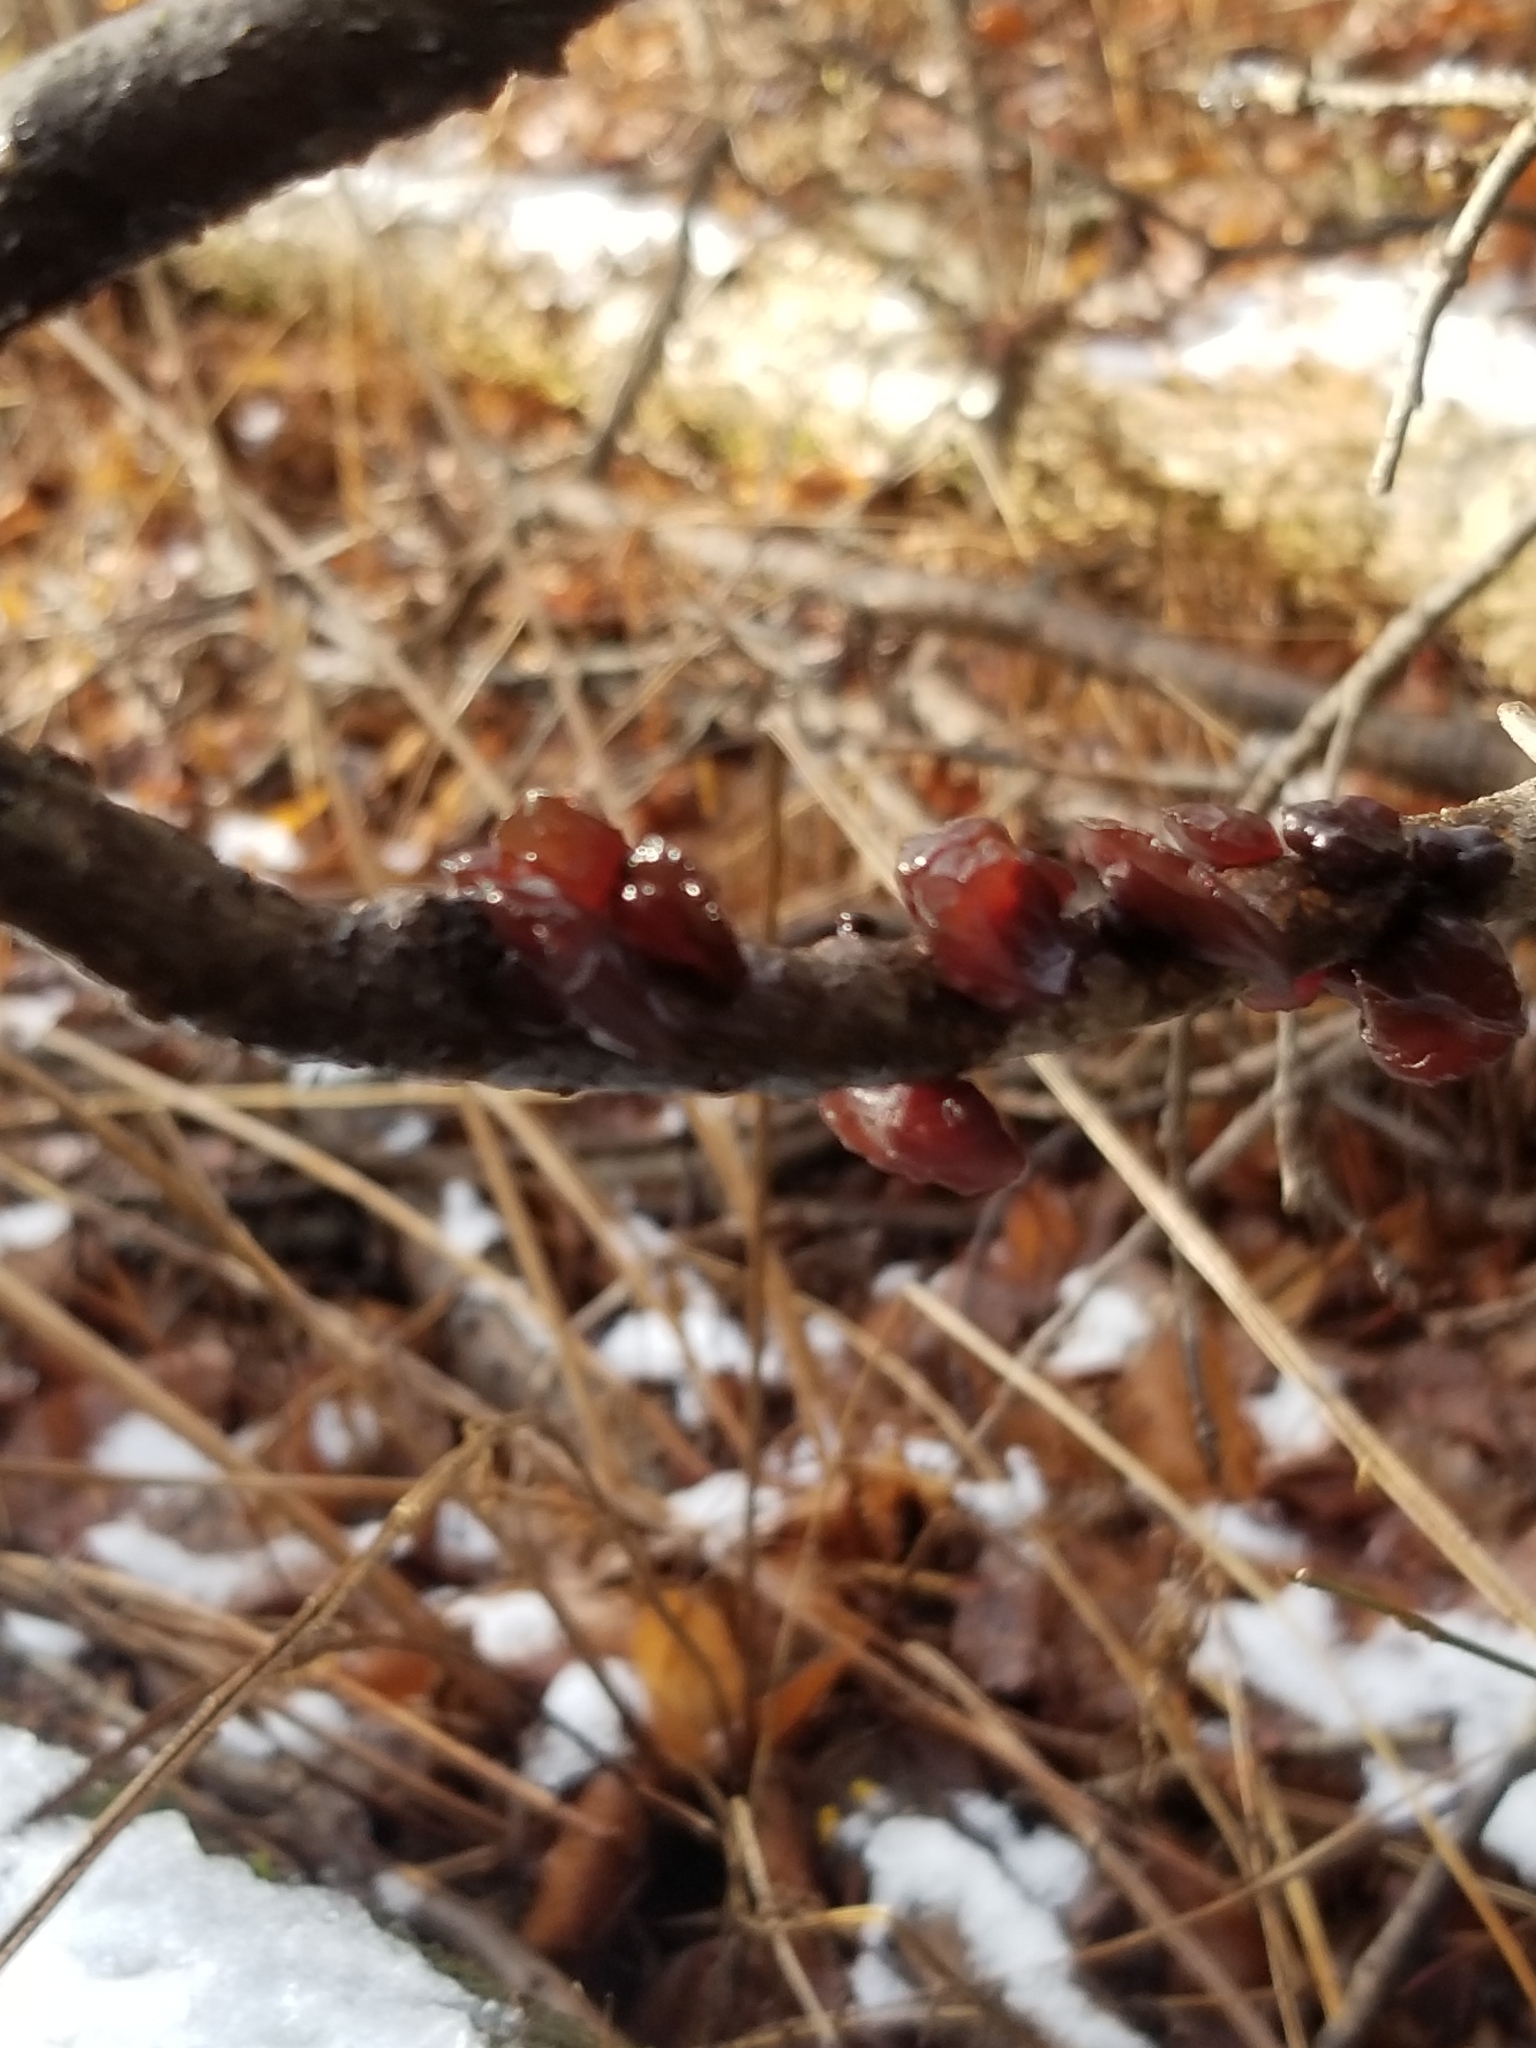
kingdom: Fungi
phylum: Basidiomycota
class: Agaricomycetes
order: Auriculariales
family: Auriculariaceae
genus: Exidia
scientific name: Exidia
